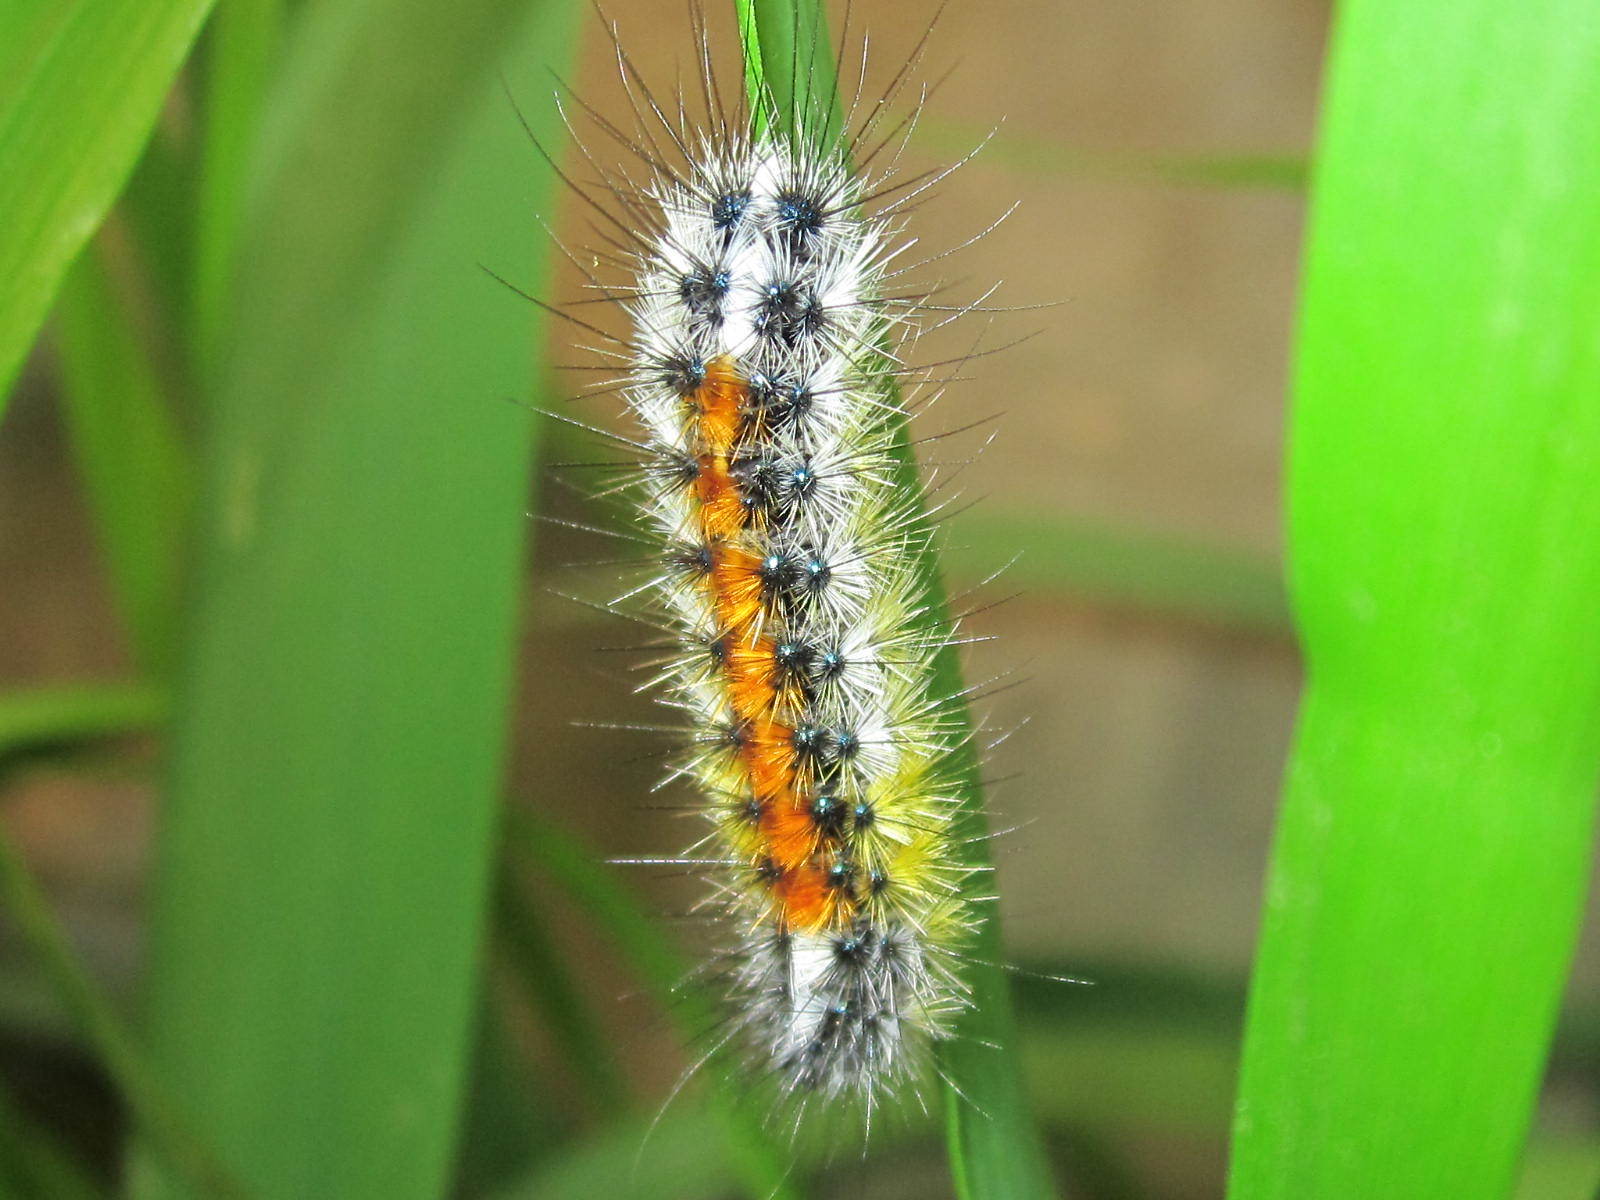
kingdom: Animalia
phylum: Arthropoda
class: Insecta
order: Lepidoptera
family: Erebidae
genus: Chilesia
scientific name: Chilesia
